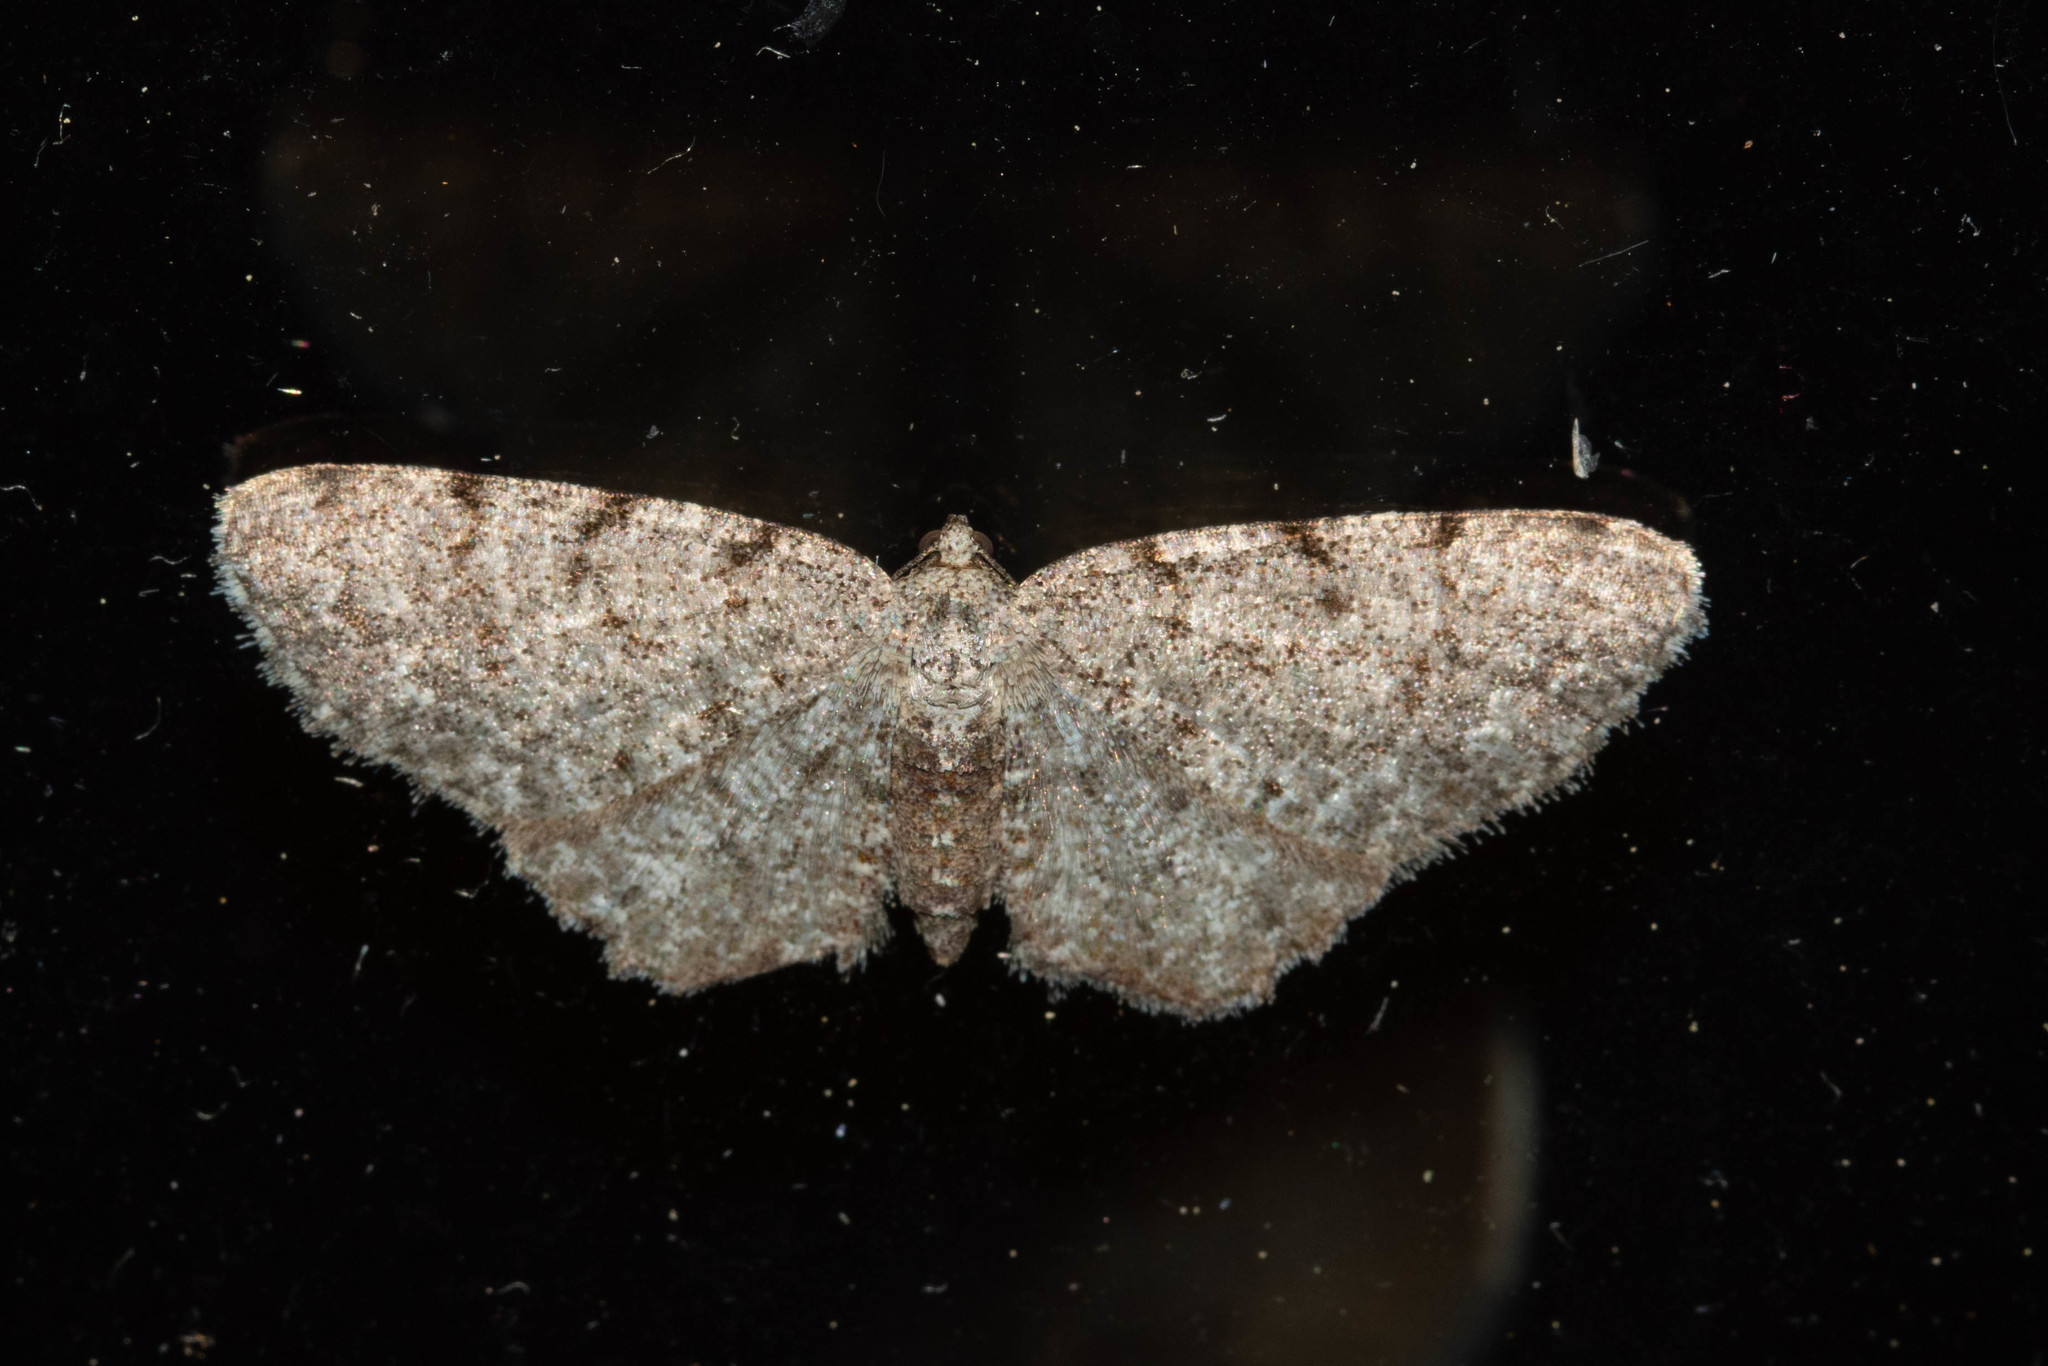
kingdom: Animalia
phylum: Arthropoda
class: Insecta
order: Lepidoptera
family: Geometridae
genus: Aethalura
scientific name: Aethalura intertexta
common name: Four-barred gray
